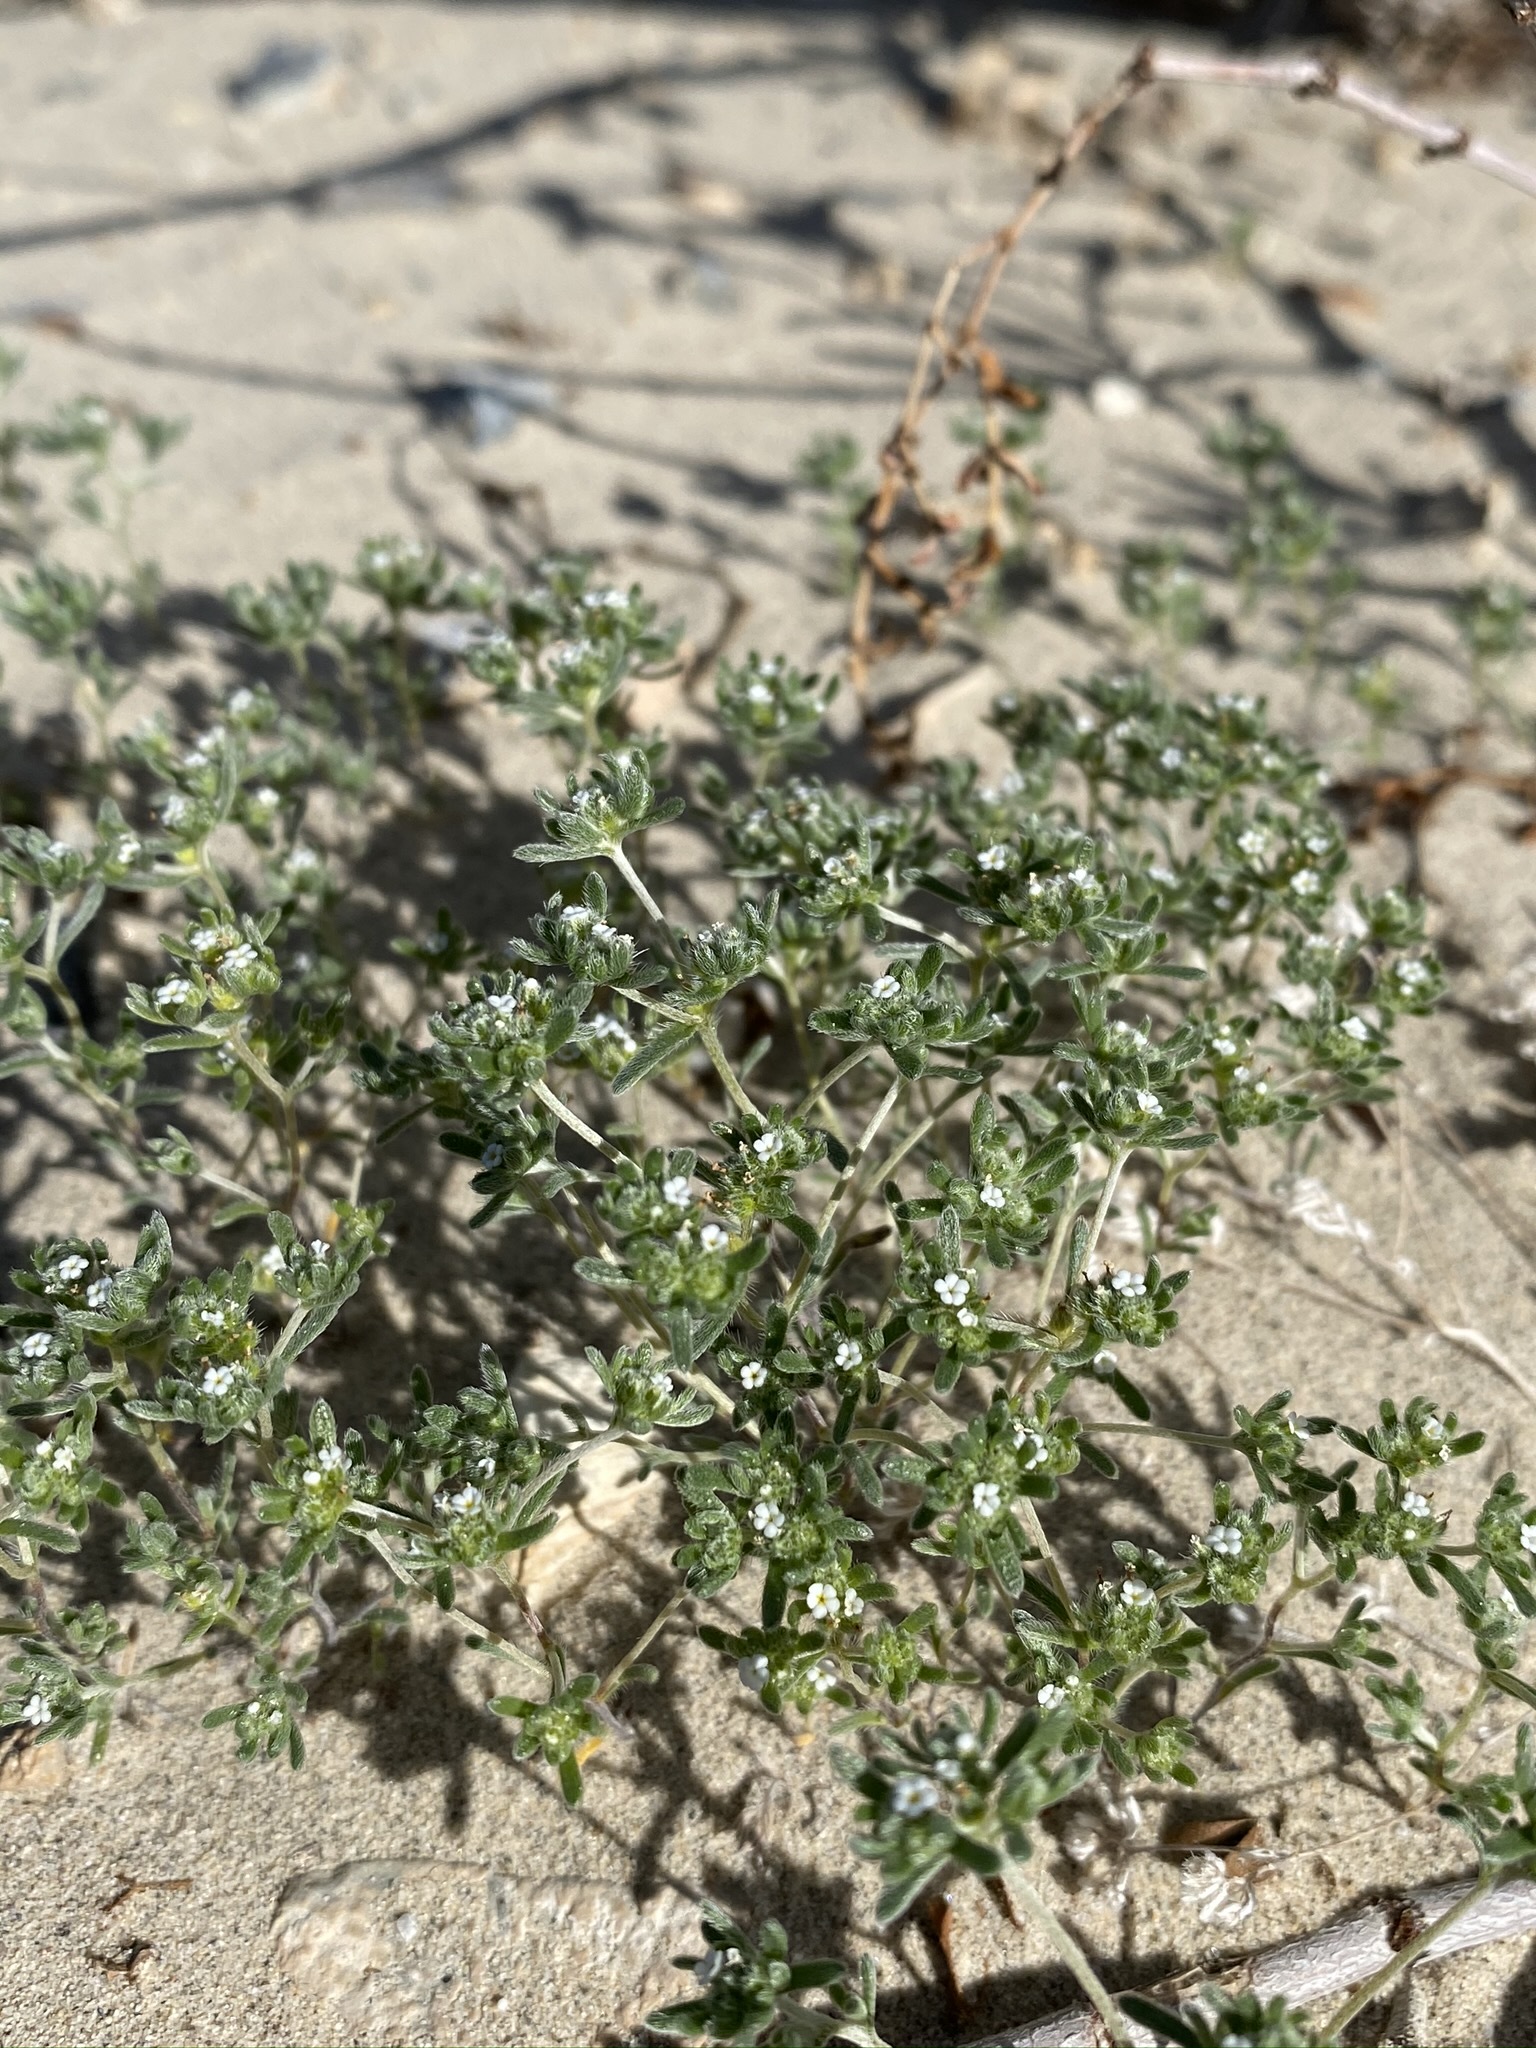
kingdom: Plantae
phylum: Tracheophyta
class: Magnoliopsida
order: Boraginales
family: Boraginaceae
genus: Eremocarya
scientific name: Eremocarya micrantha
